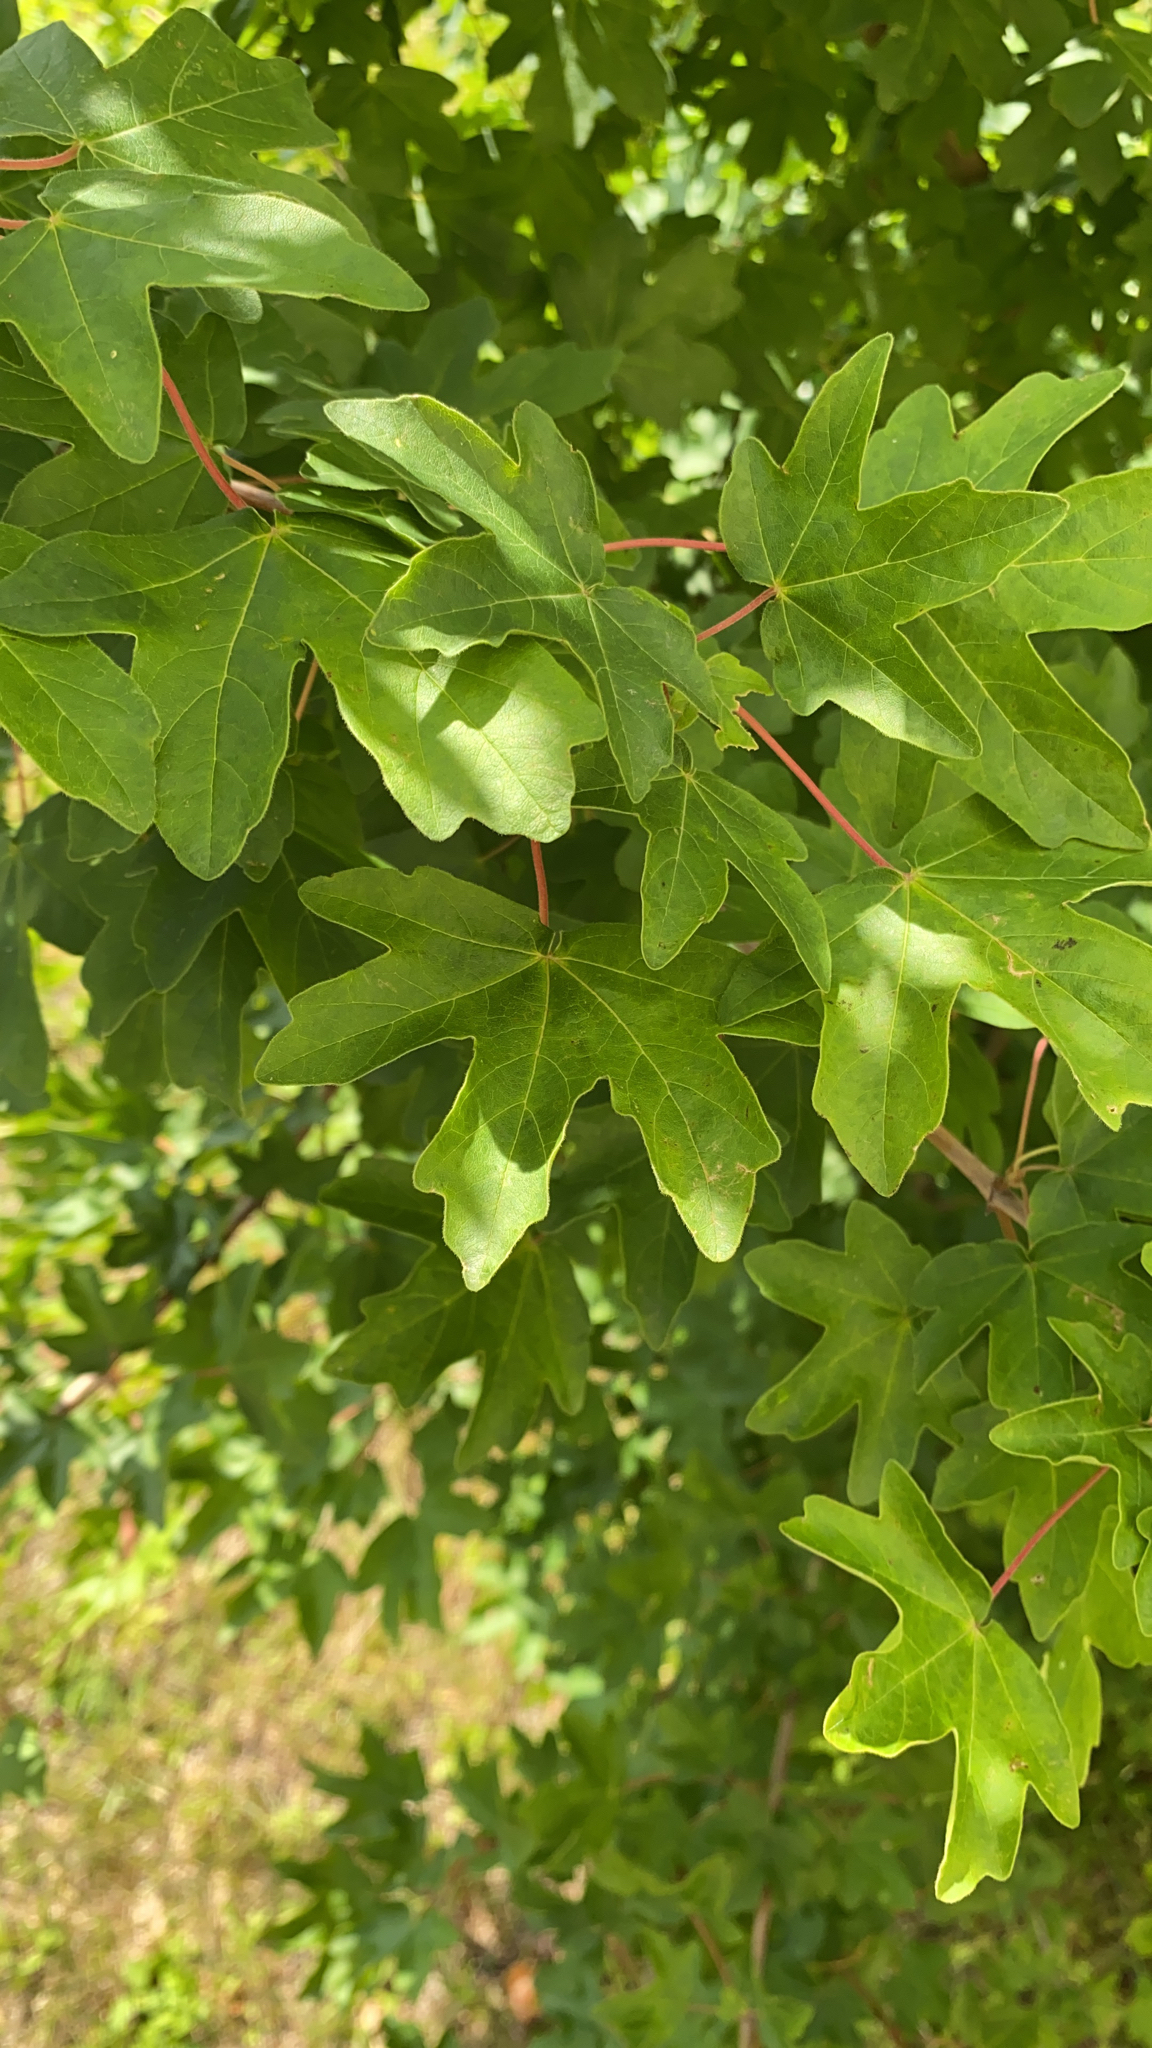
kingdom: Plantae
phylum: Tracheophyta
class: Magnoliopsida
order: Sapindales
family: Sapindaceae
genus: Acer
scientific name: Acer campestre
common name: Field maple
